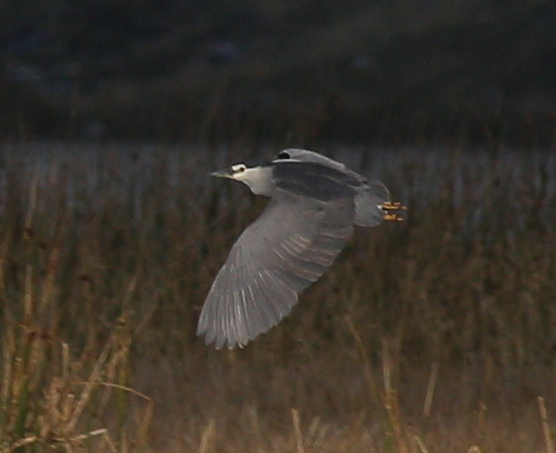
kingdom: Animalia
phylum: Chordata
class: Aves
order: Pelecaniformes
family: Ardeidae
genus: Nycticorax
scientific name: Nycticorax nycticorax
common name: Black-crowned night heron
